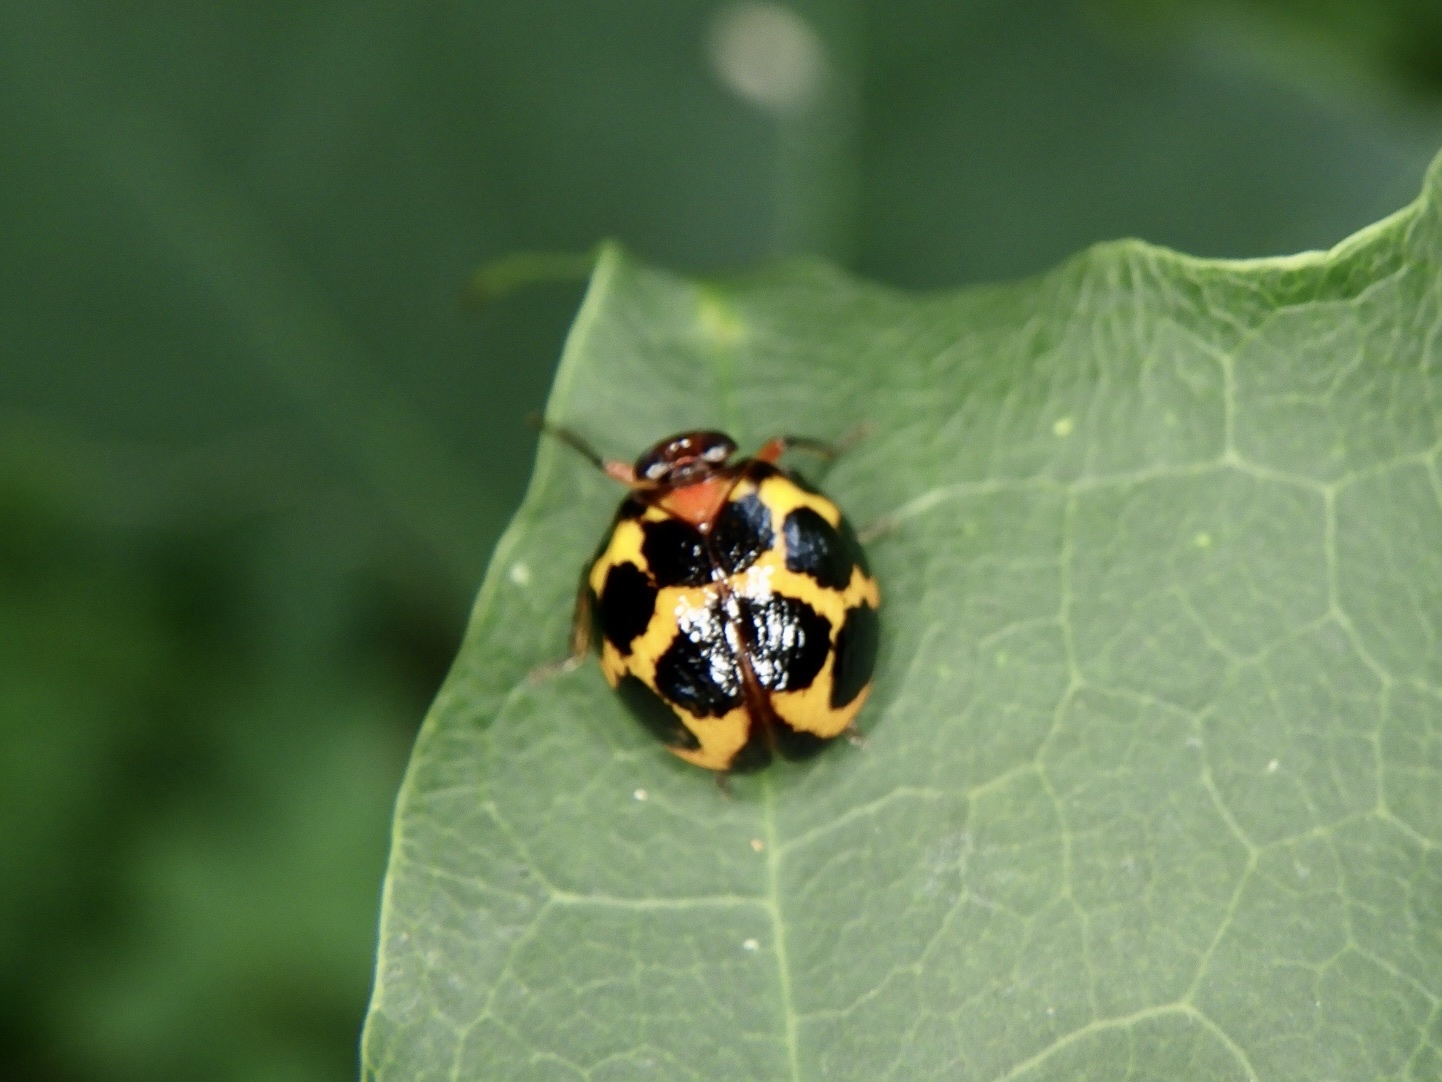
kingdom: Animalia
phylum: Arthropoda
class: Insecta
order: Hemiptera
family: Issidae
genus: Ishiharanus
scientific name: Ishiharanus iguchii
